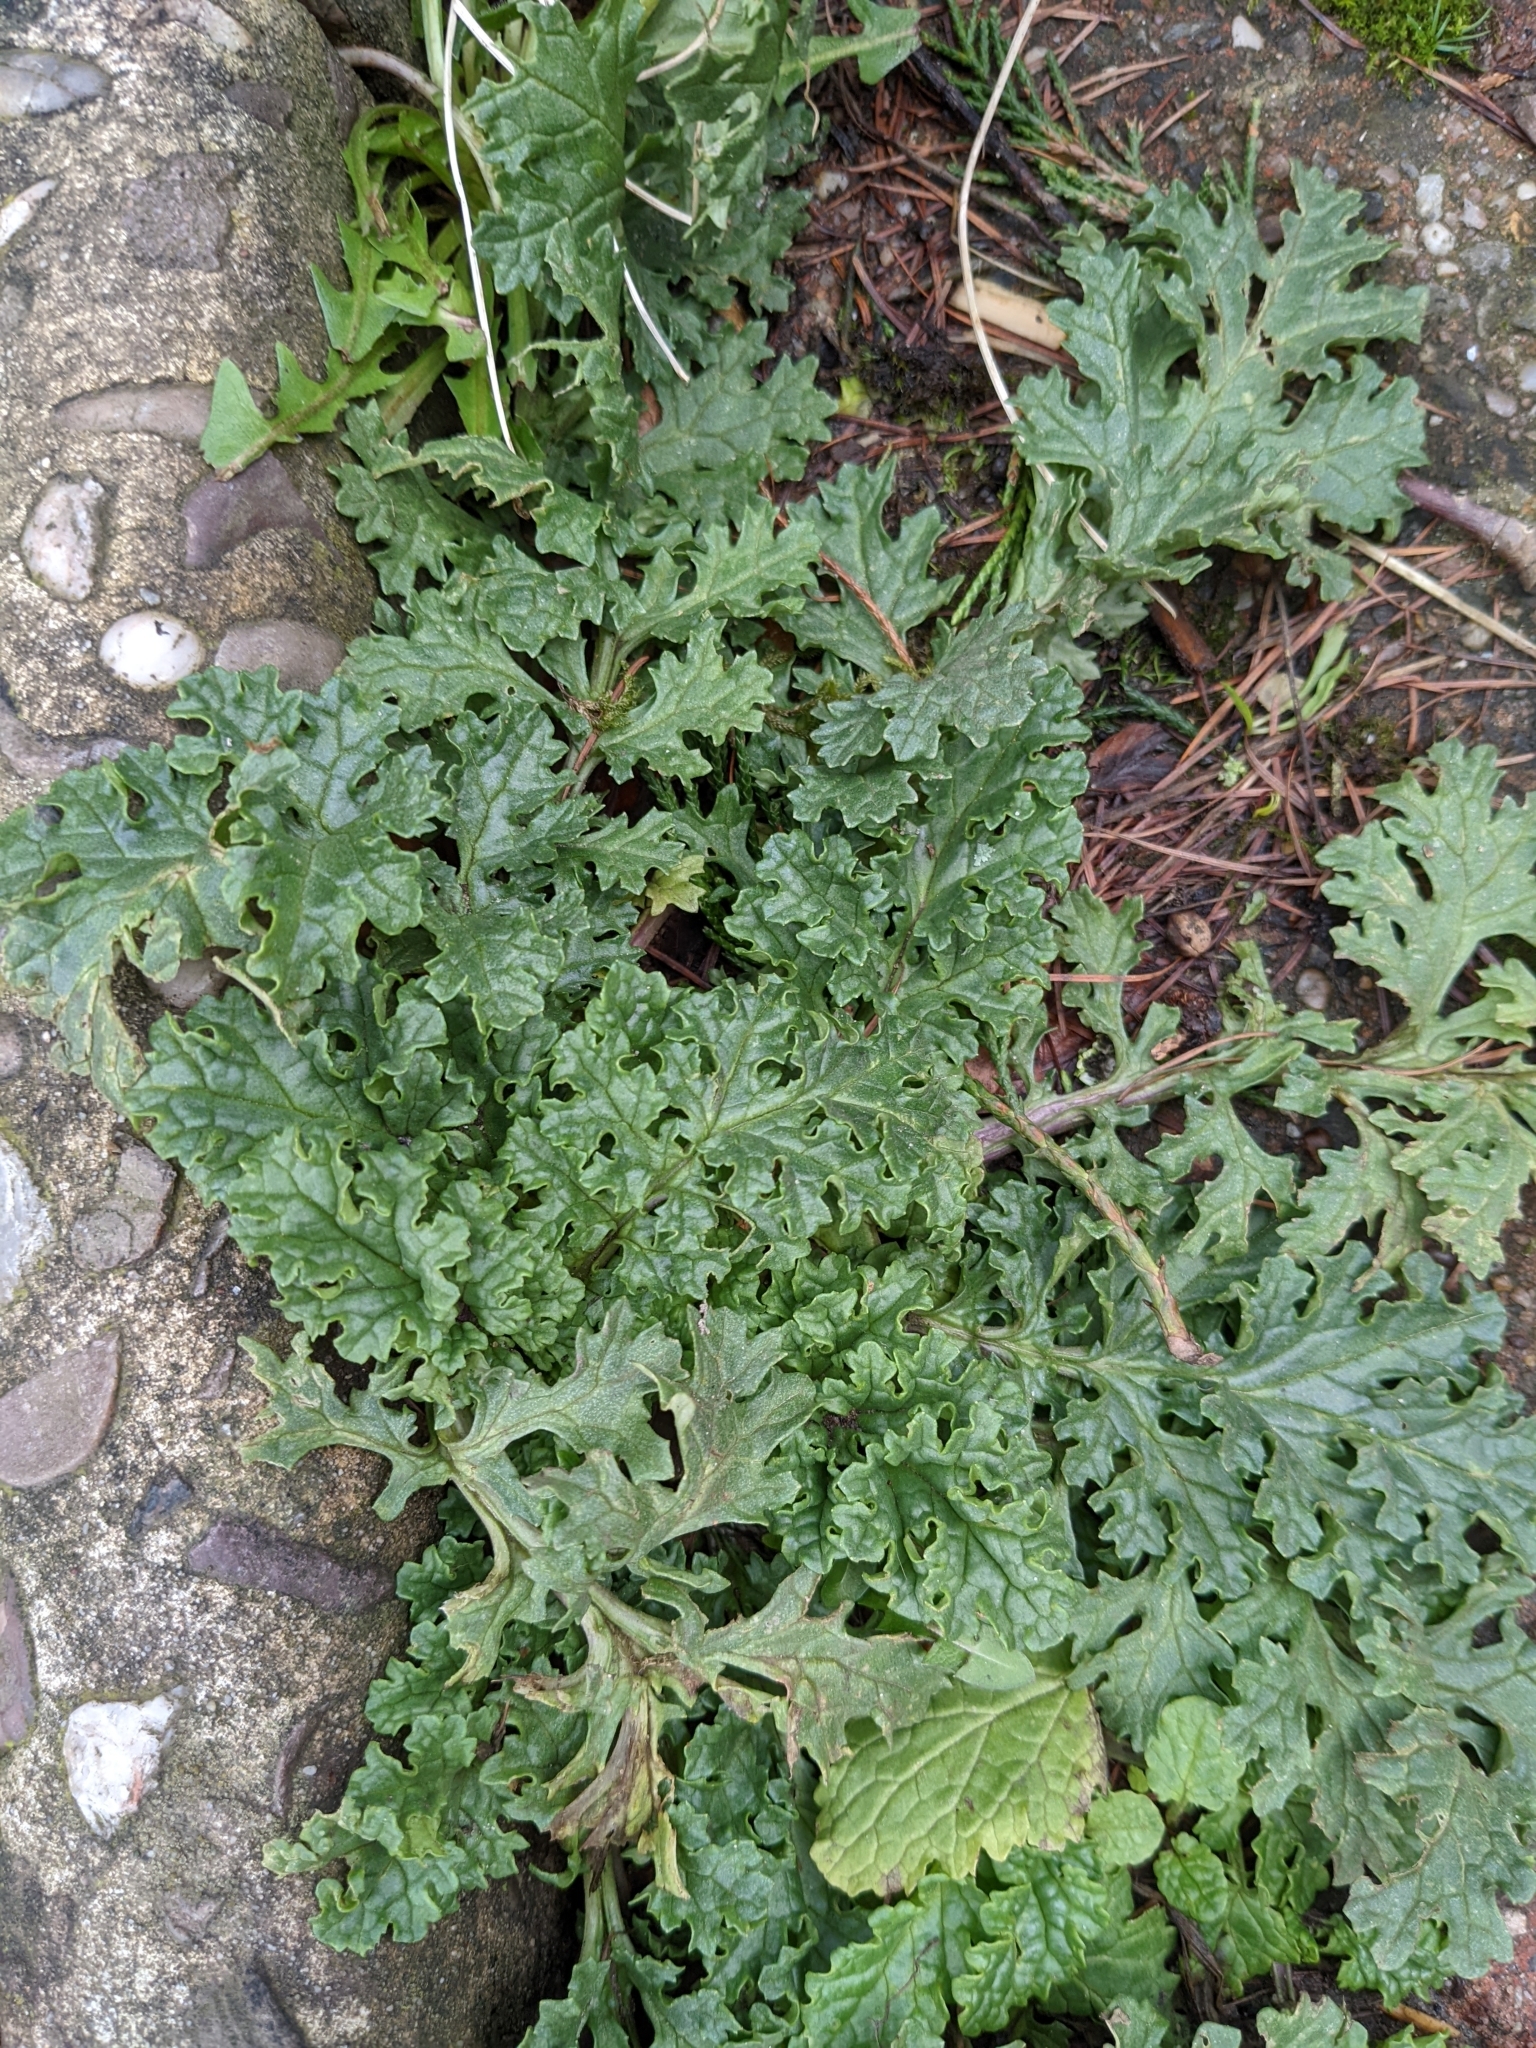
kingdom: Plantae
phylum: Tracheophyta
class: Magnoliopsida
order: Asterales
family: Asteraceae
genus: Jacobaea
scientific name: Jacobaea vulgaris
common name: Stinking willie
